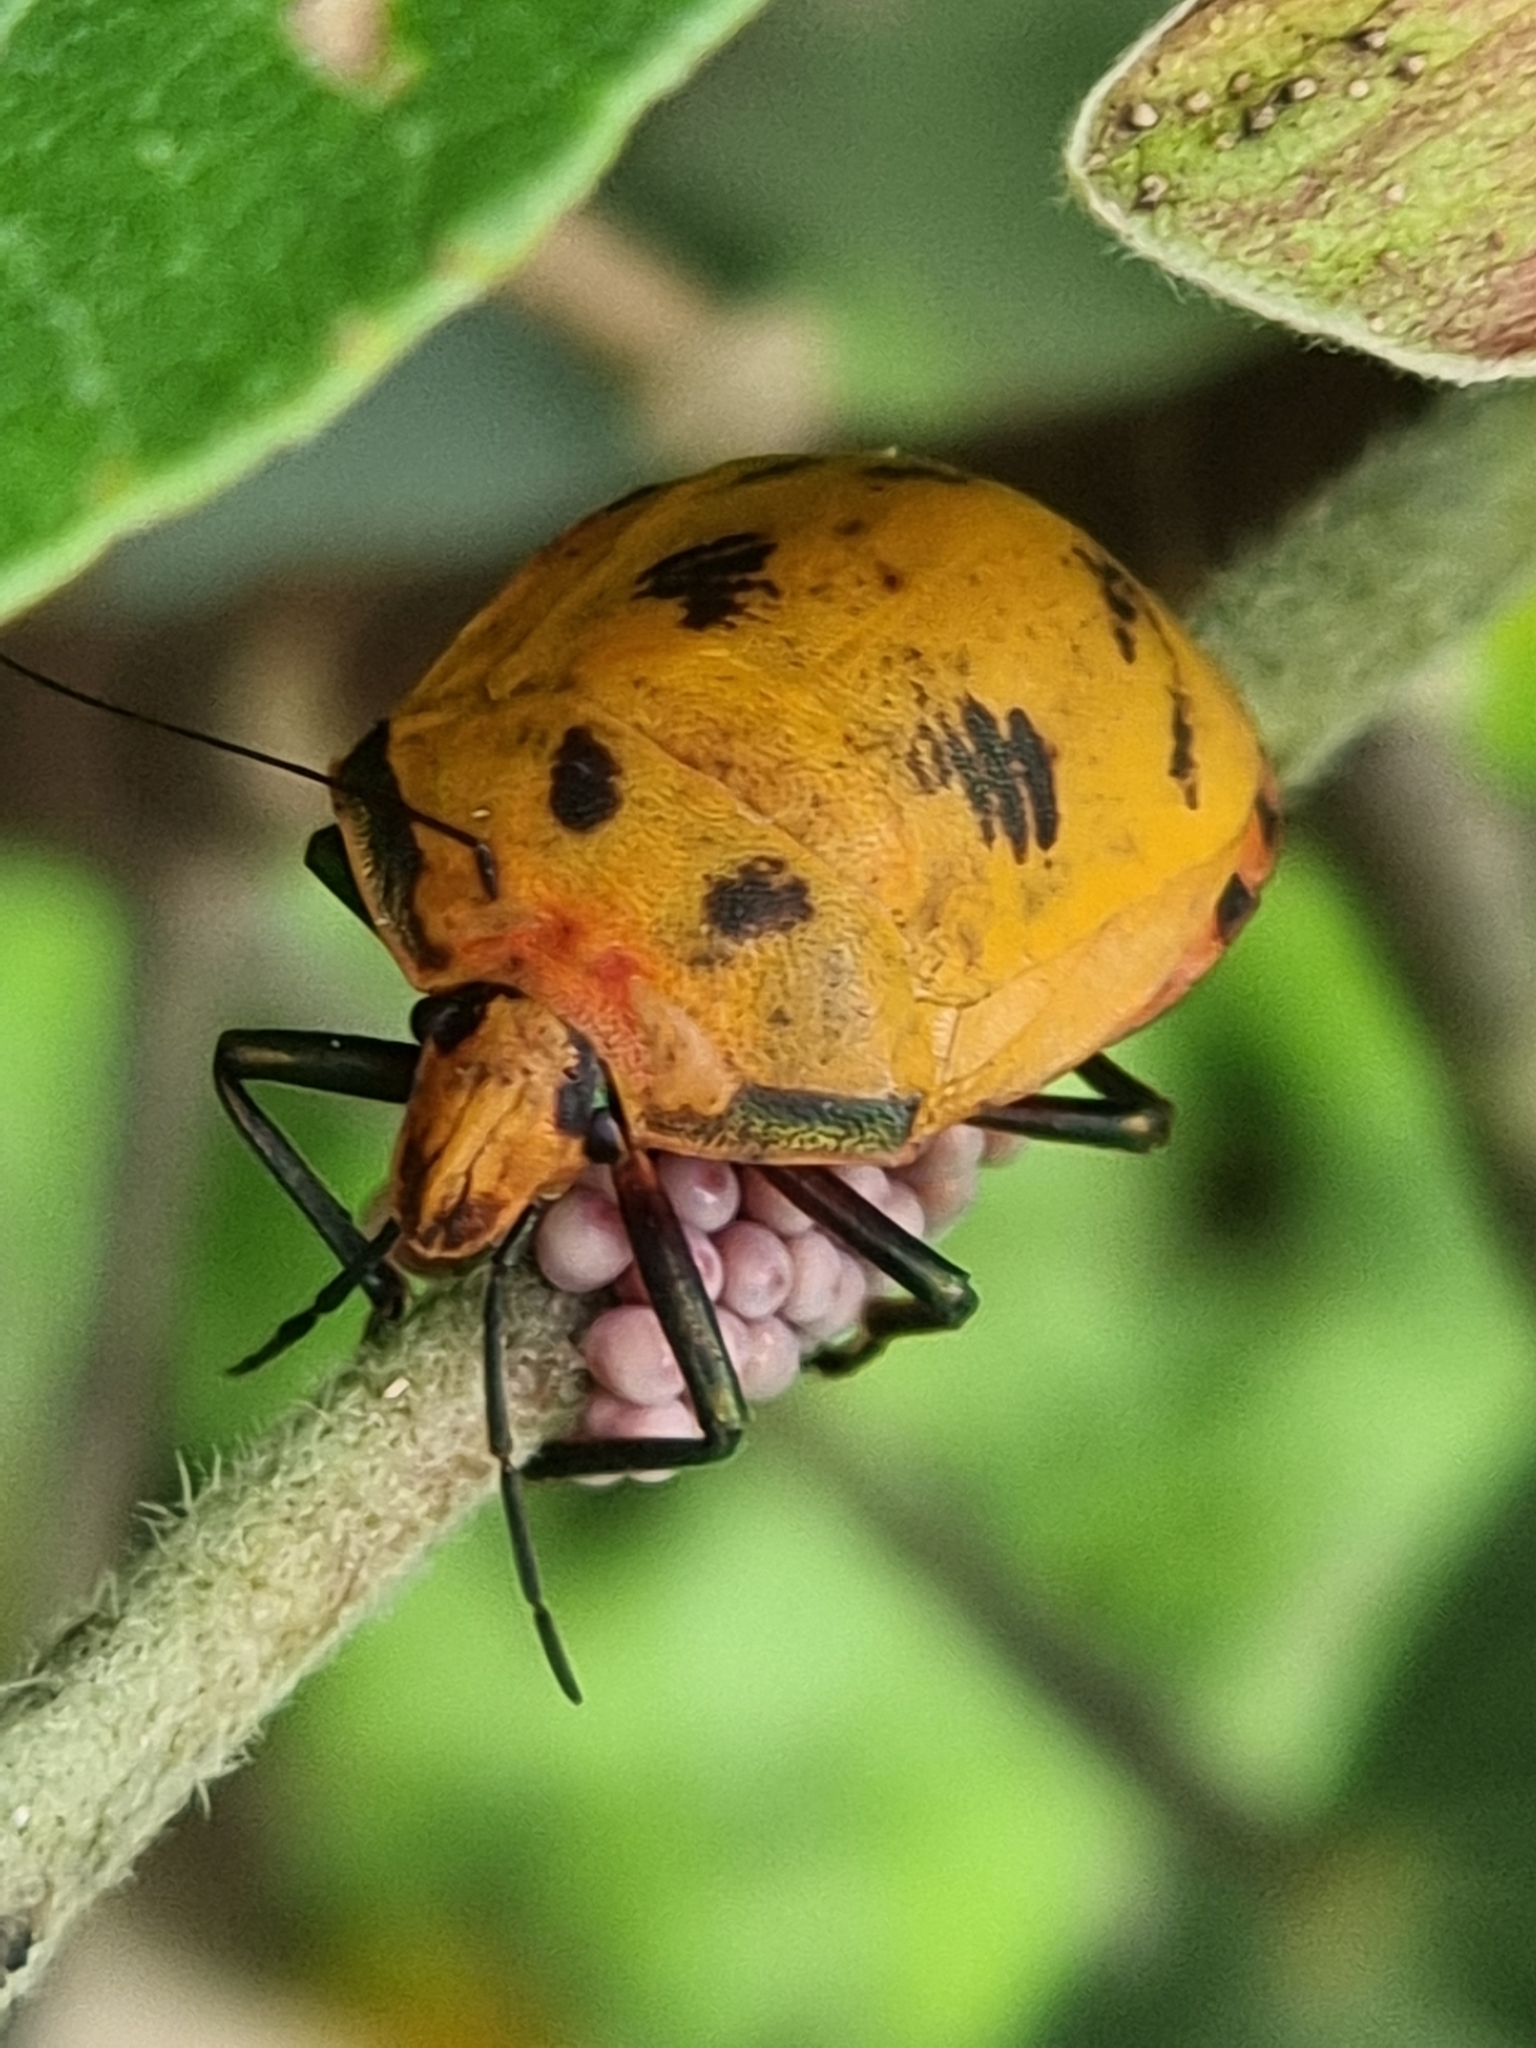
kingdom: Animalia
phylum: Arthropoda
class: Insecta
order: Hemiptera
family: Scutelleridae
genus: Tectocoris
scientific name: Tectocoris diophthalmus
